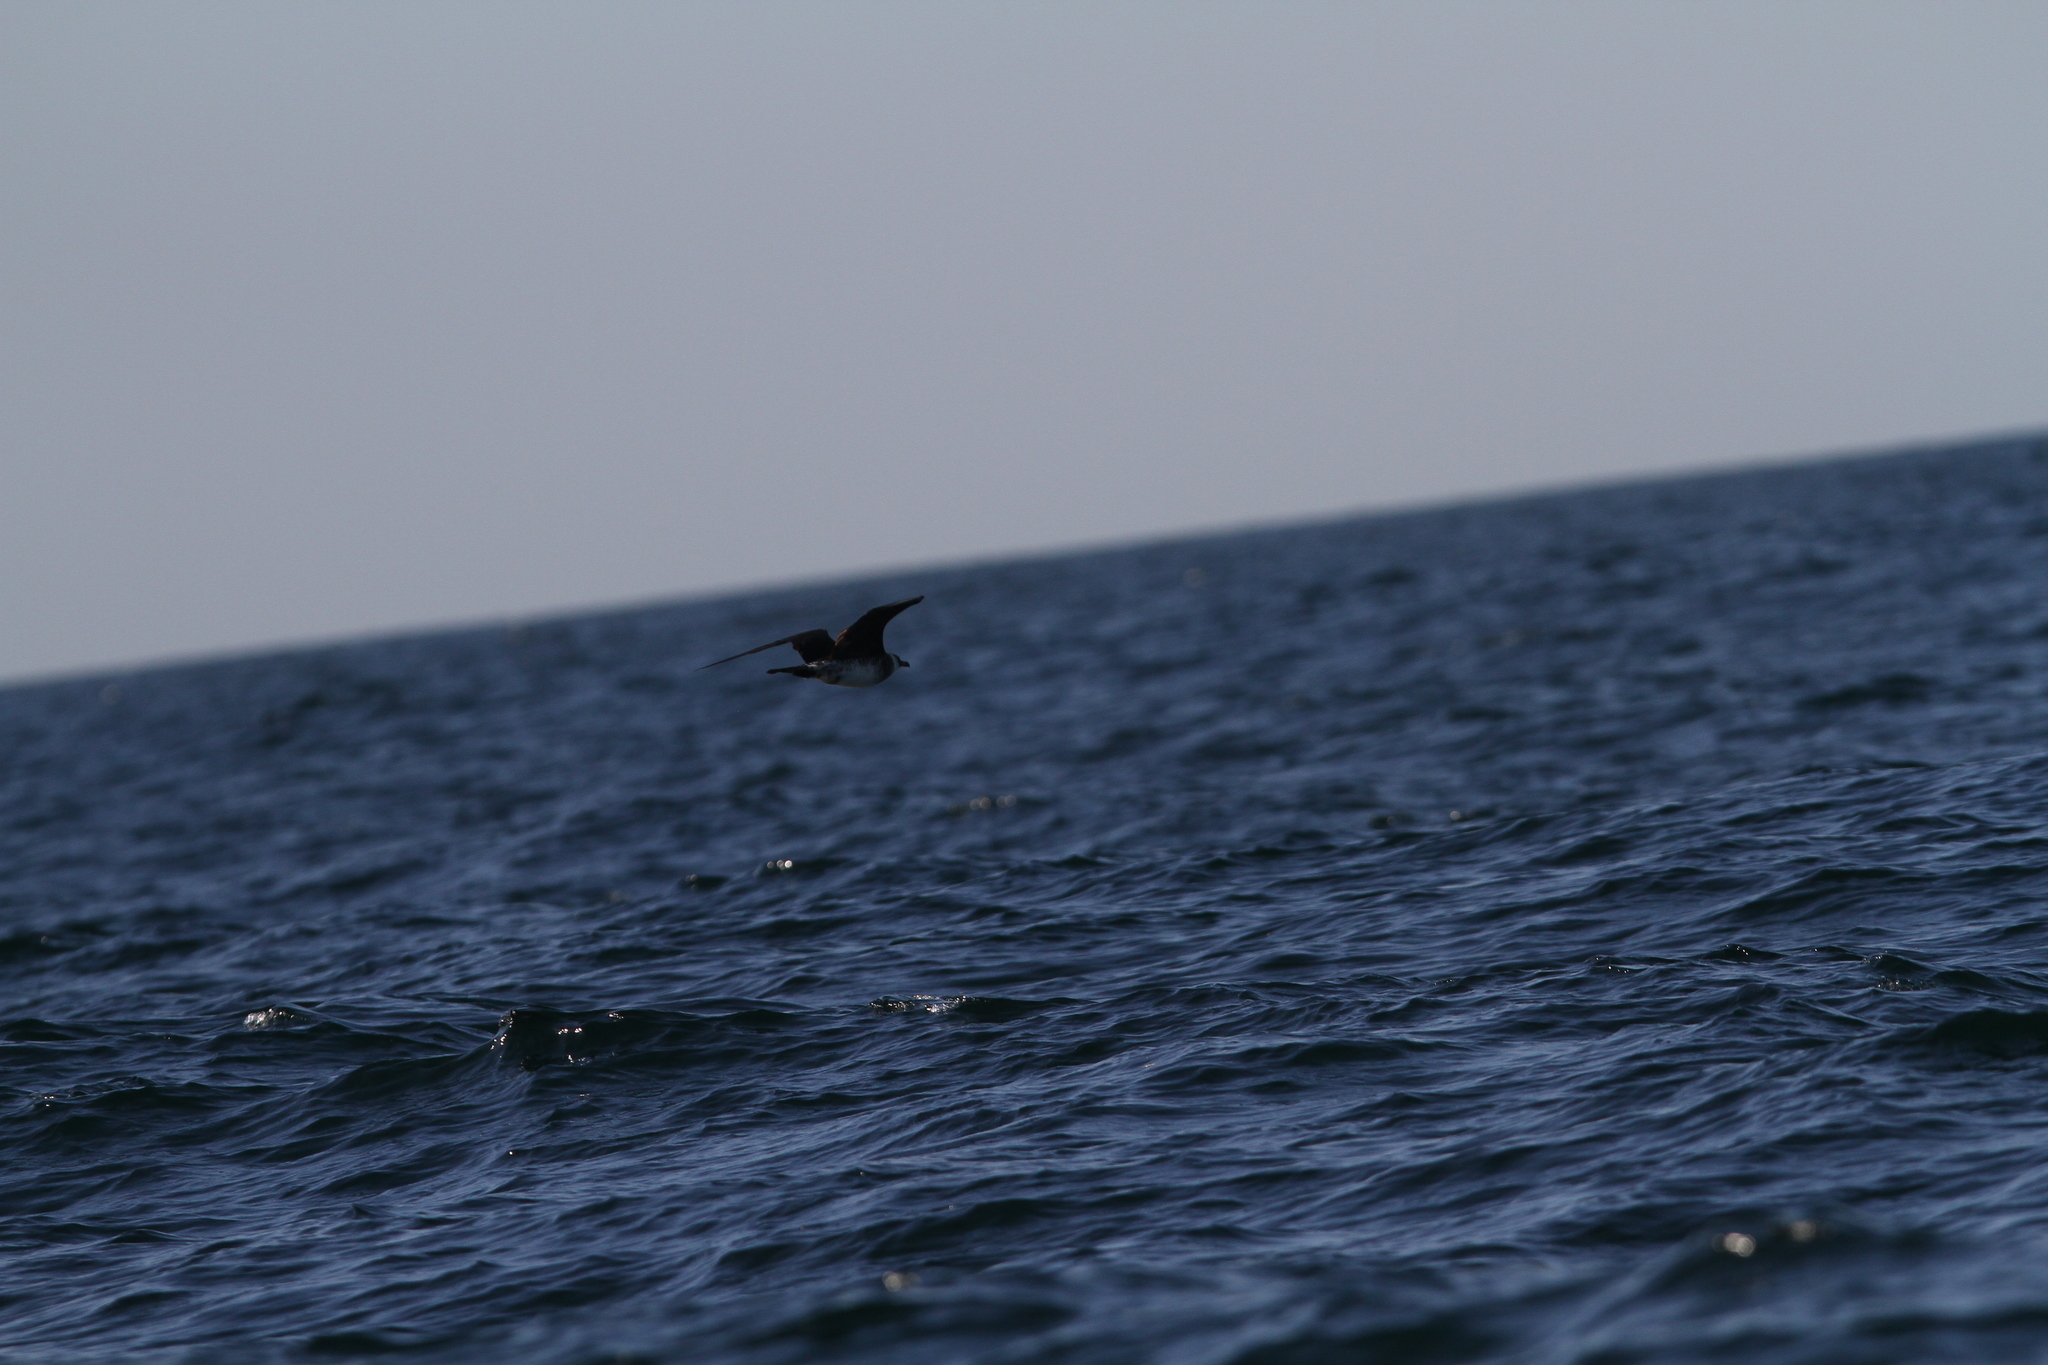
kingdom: Animalia
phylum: Chordata
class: Aves
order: Charadriiformes
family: Stercorariidae
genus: Stercorarius
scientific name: Stercorarius pomarinus
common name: Pomarine jaeger
